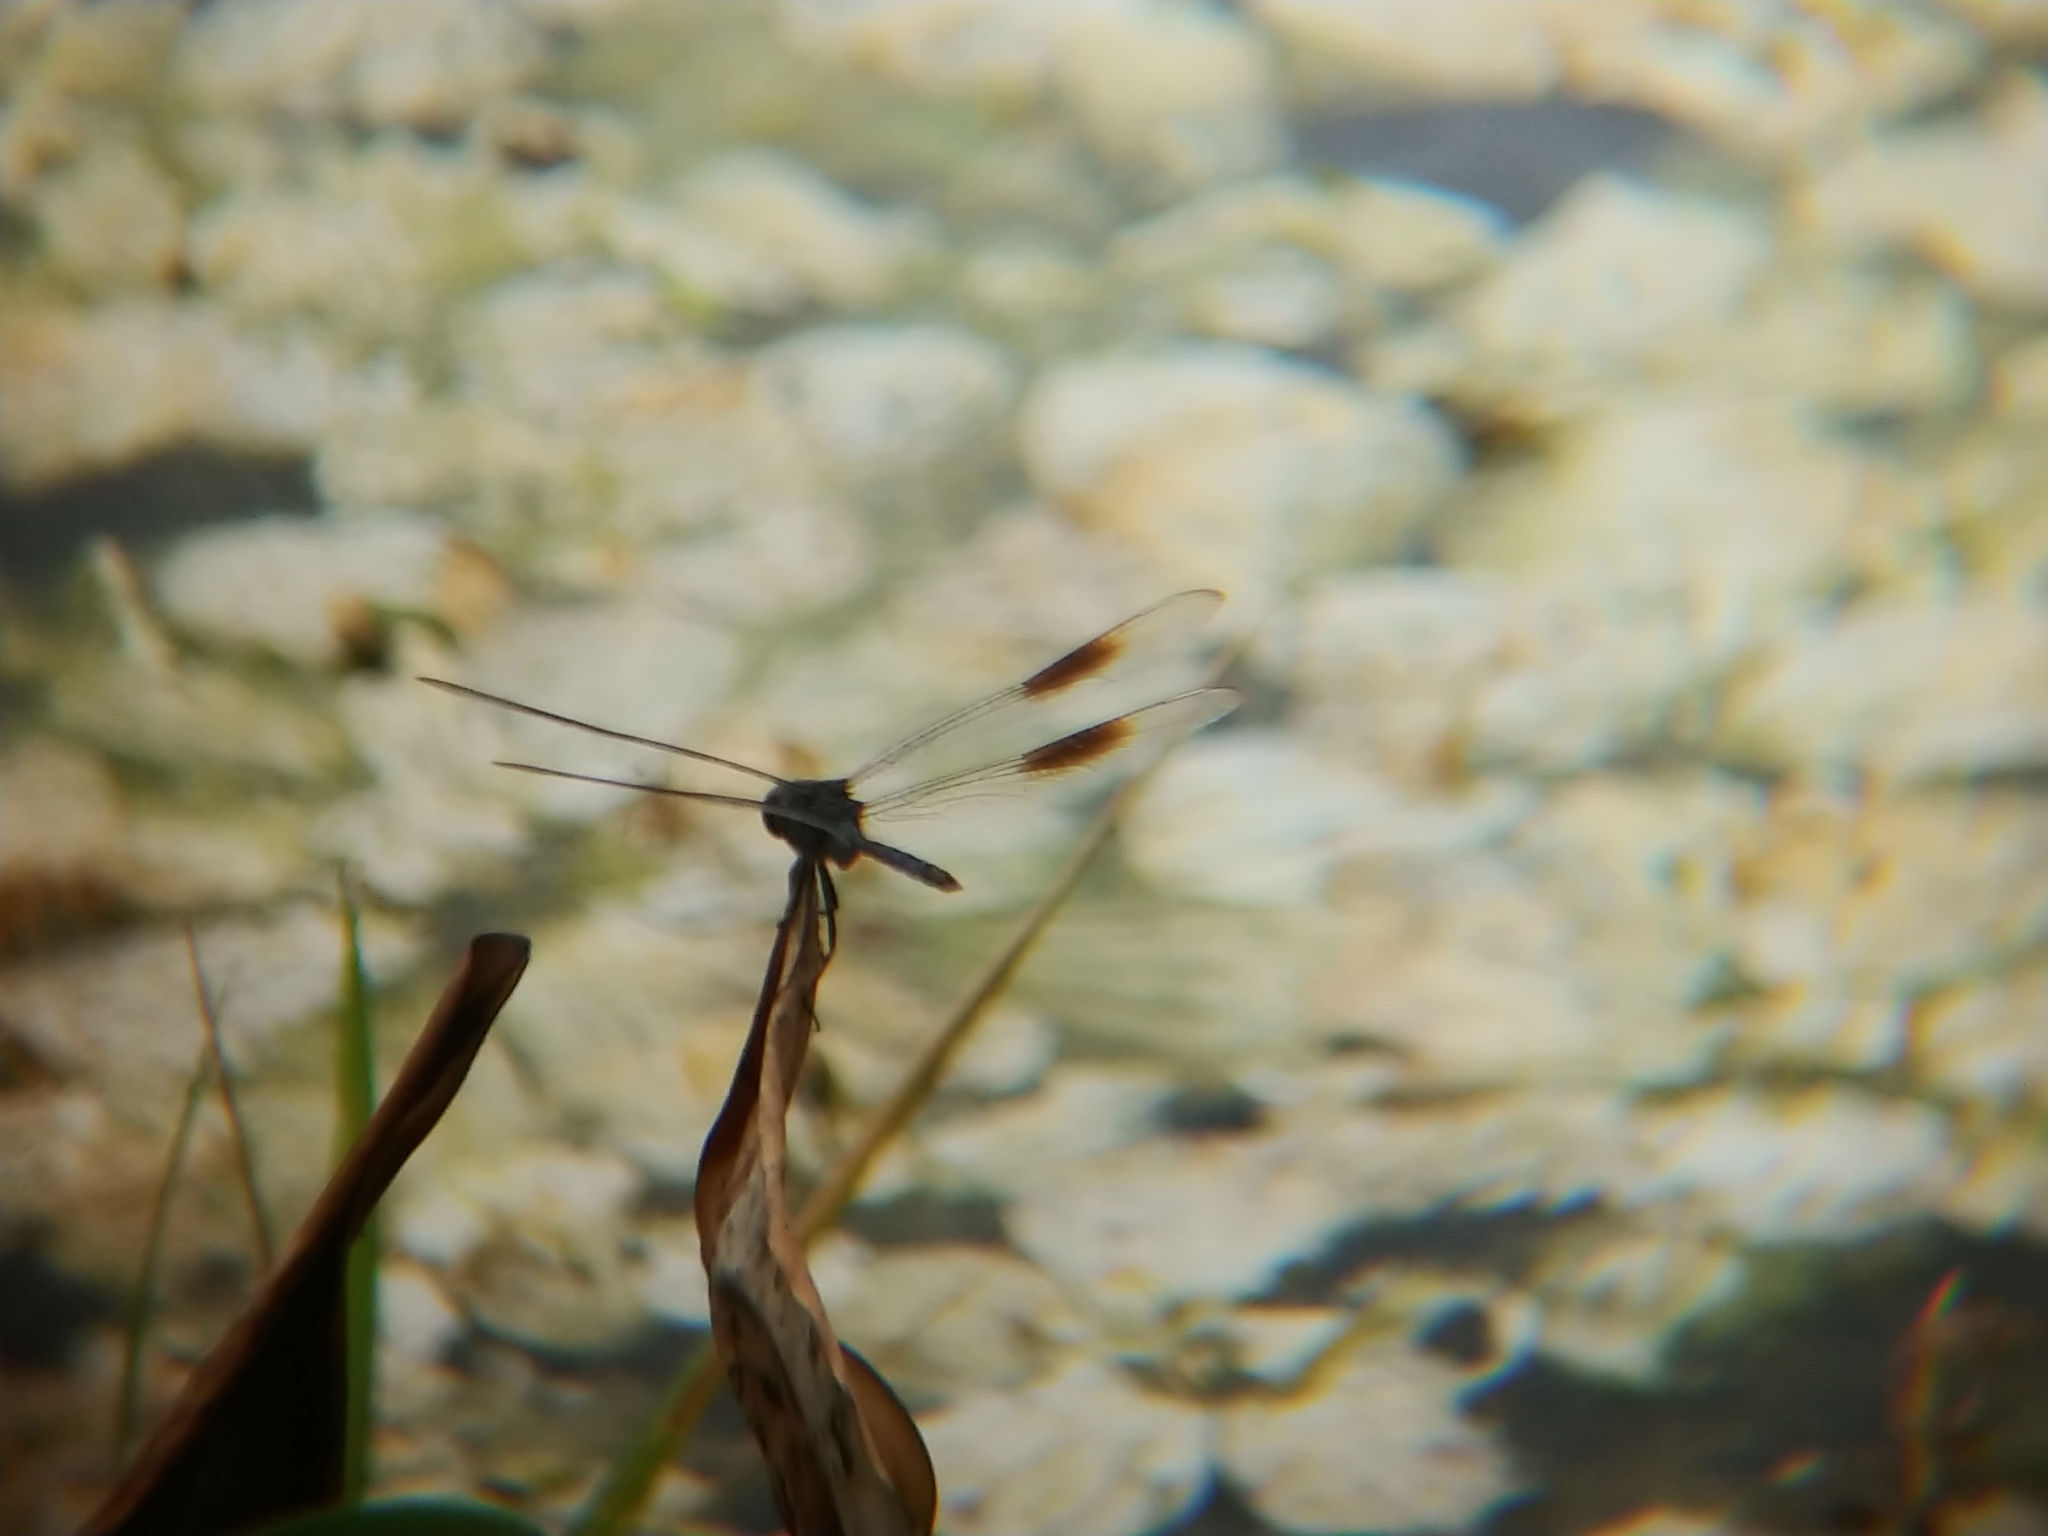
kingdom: Animalia
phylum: Arthropoda
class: Insecta
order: Odonata
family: Libellulidae
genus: Brachymesia
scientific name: Brachymesia gravida
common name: Four-spotted pennant
